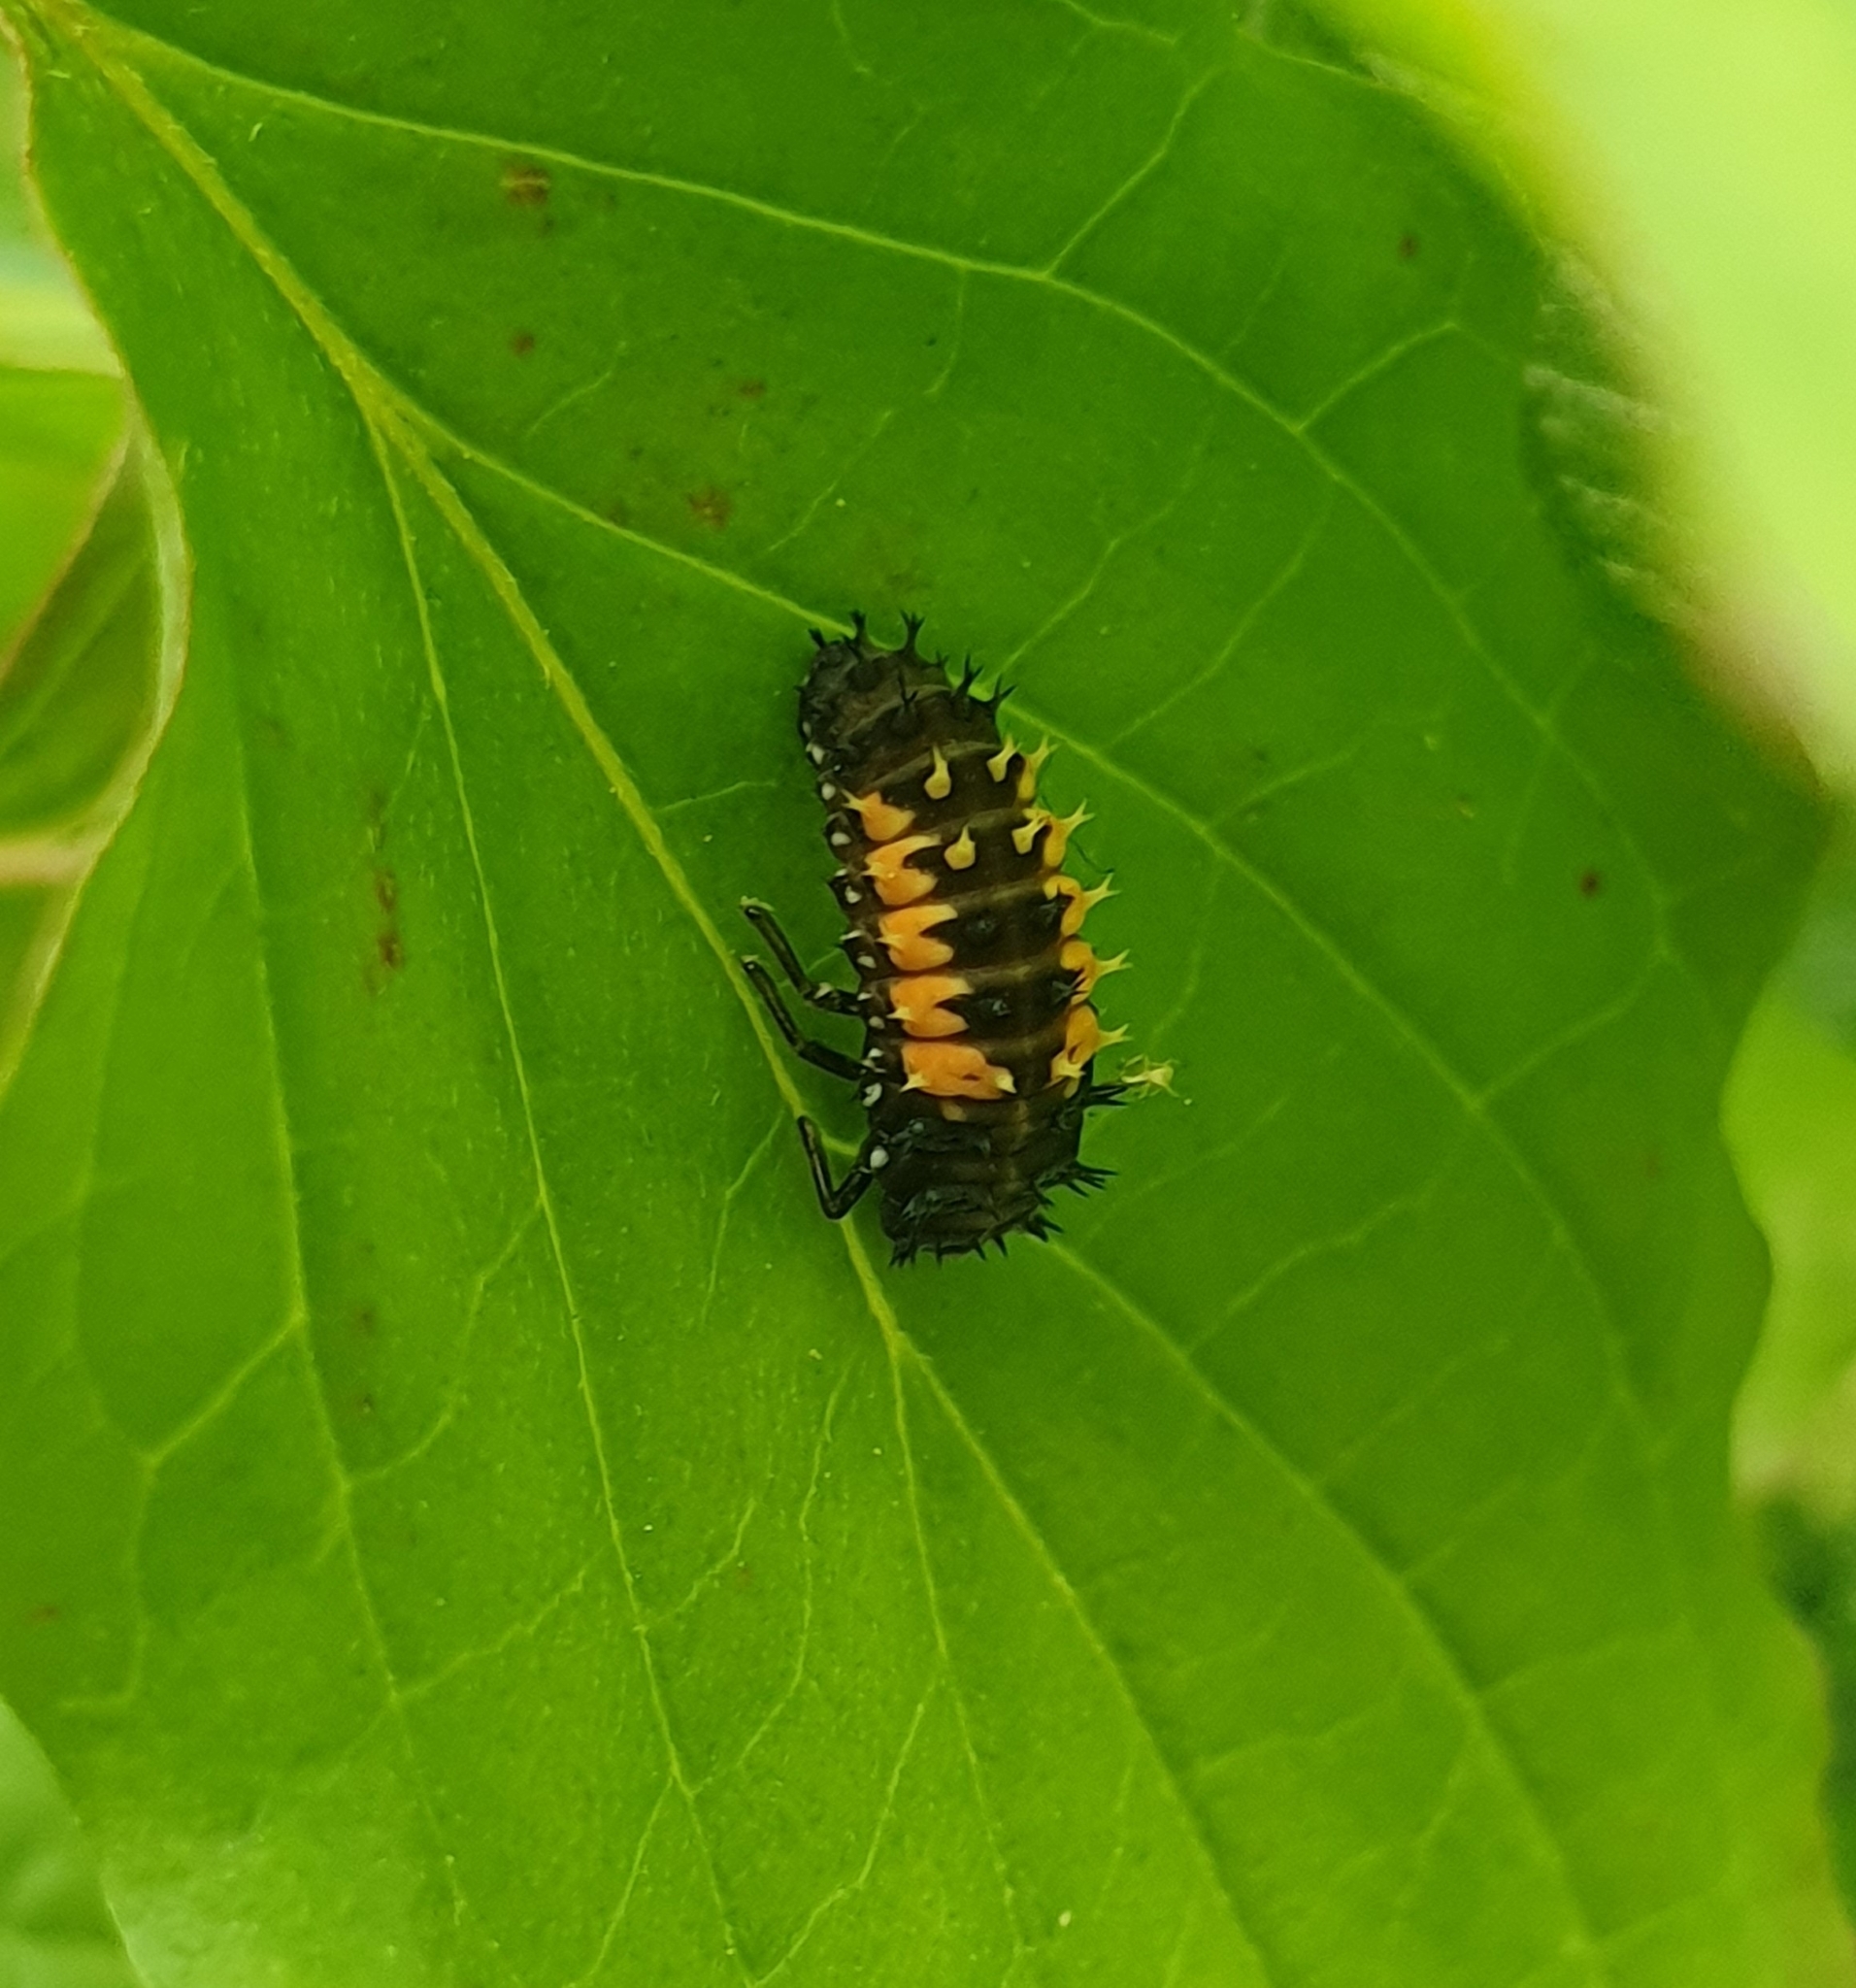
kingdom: Animalia
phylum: Arthropoda
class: Insecta
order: Coleoptera
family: Coccinellidae
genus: Harmonia
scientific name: Harmonia axyridis
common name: Harlequin ladybird
